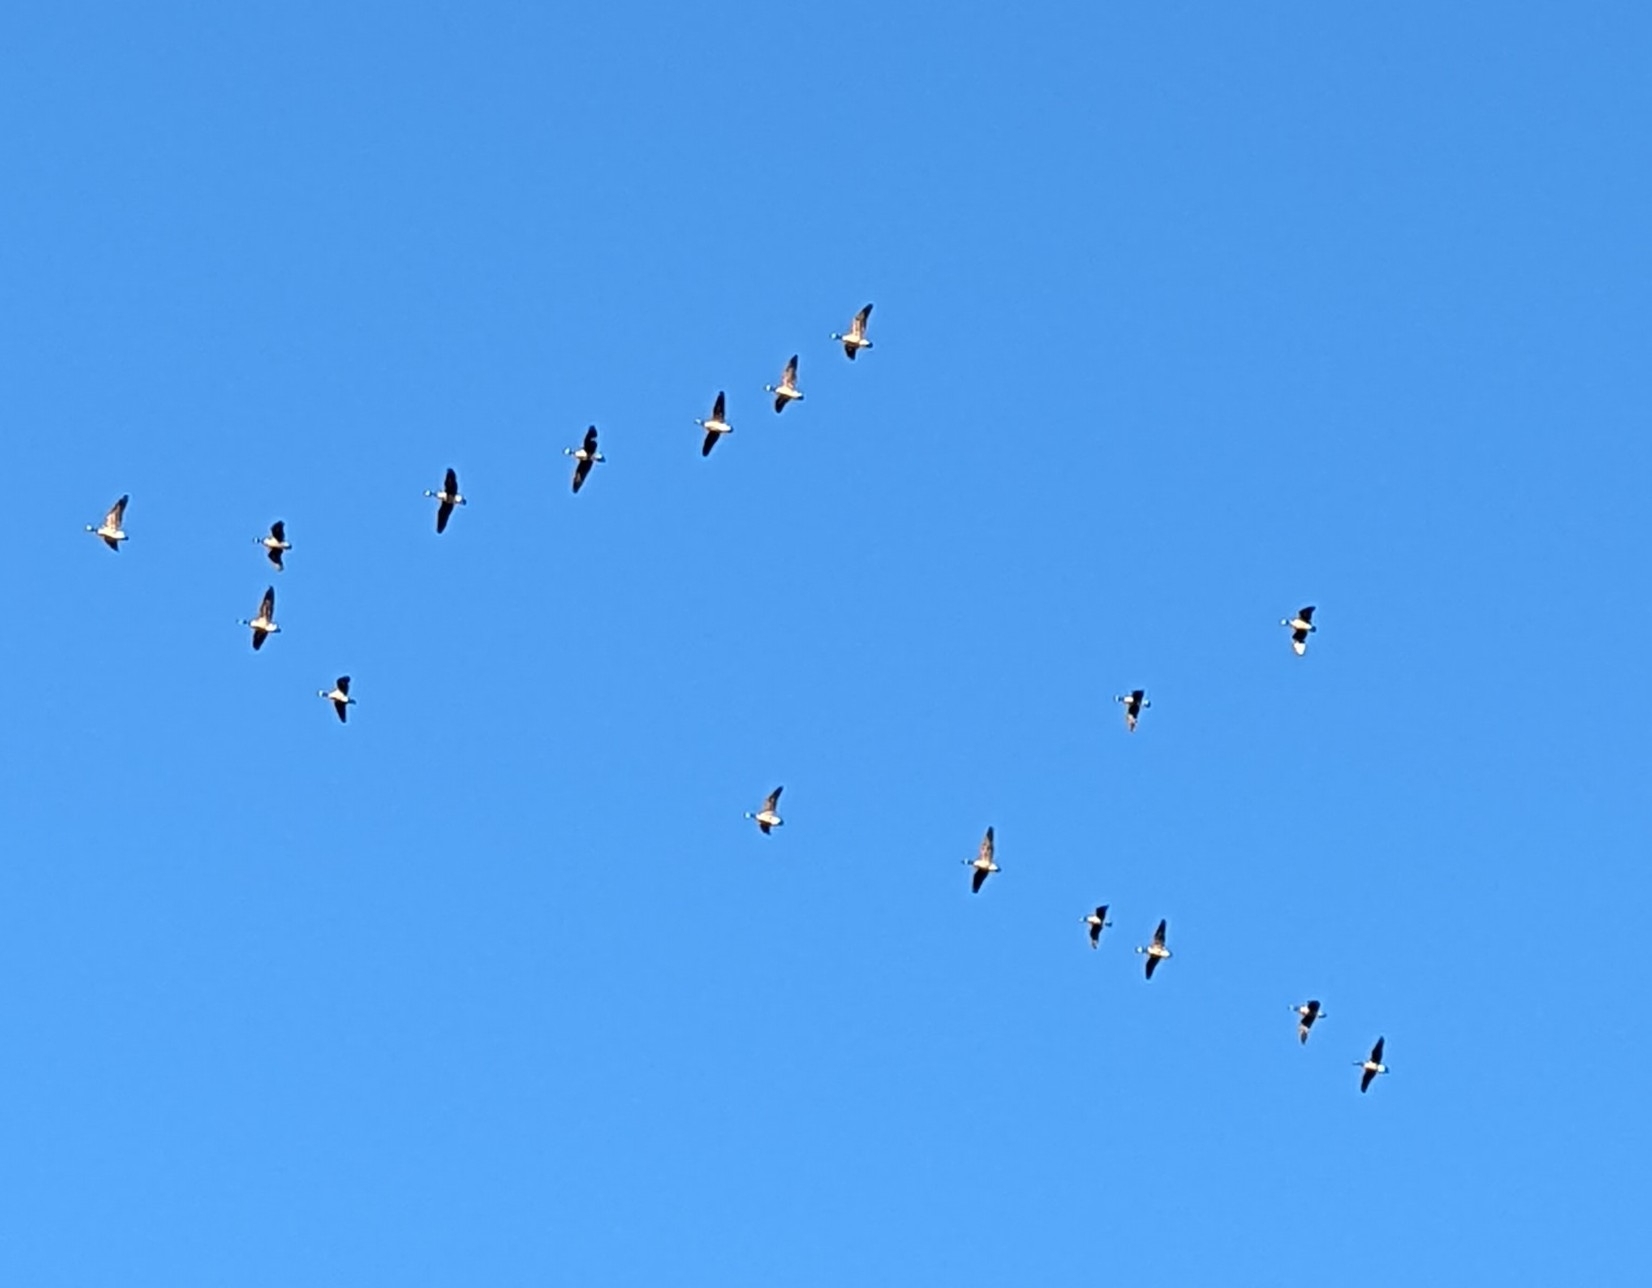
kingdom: Animalia
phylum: Chordata
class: Aves
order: Anseriformes
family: Anatidae
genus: Branta
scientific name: Branta canadensis
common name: Canada goose
